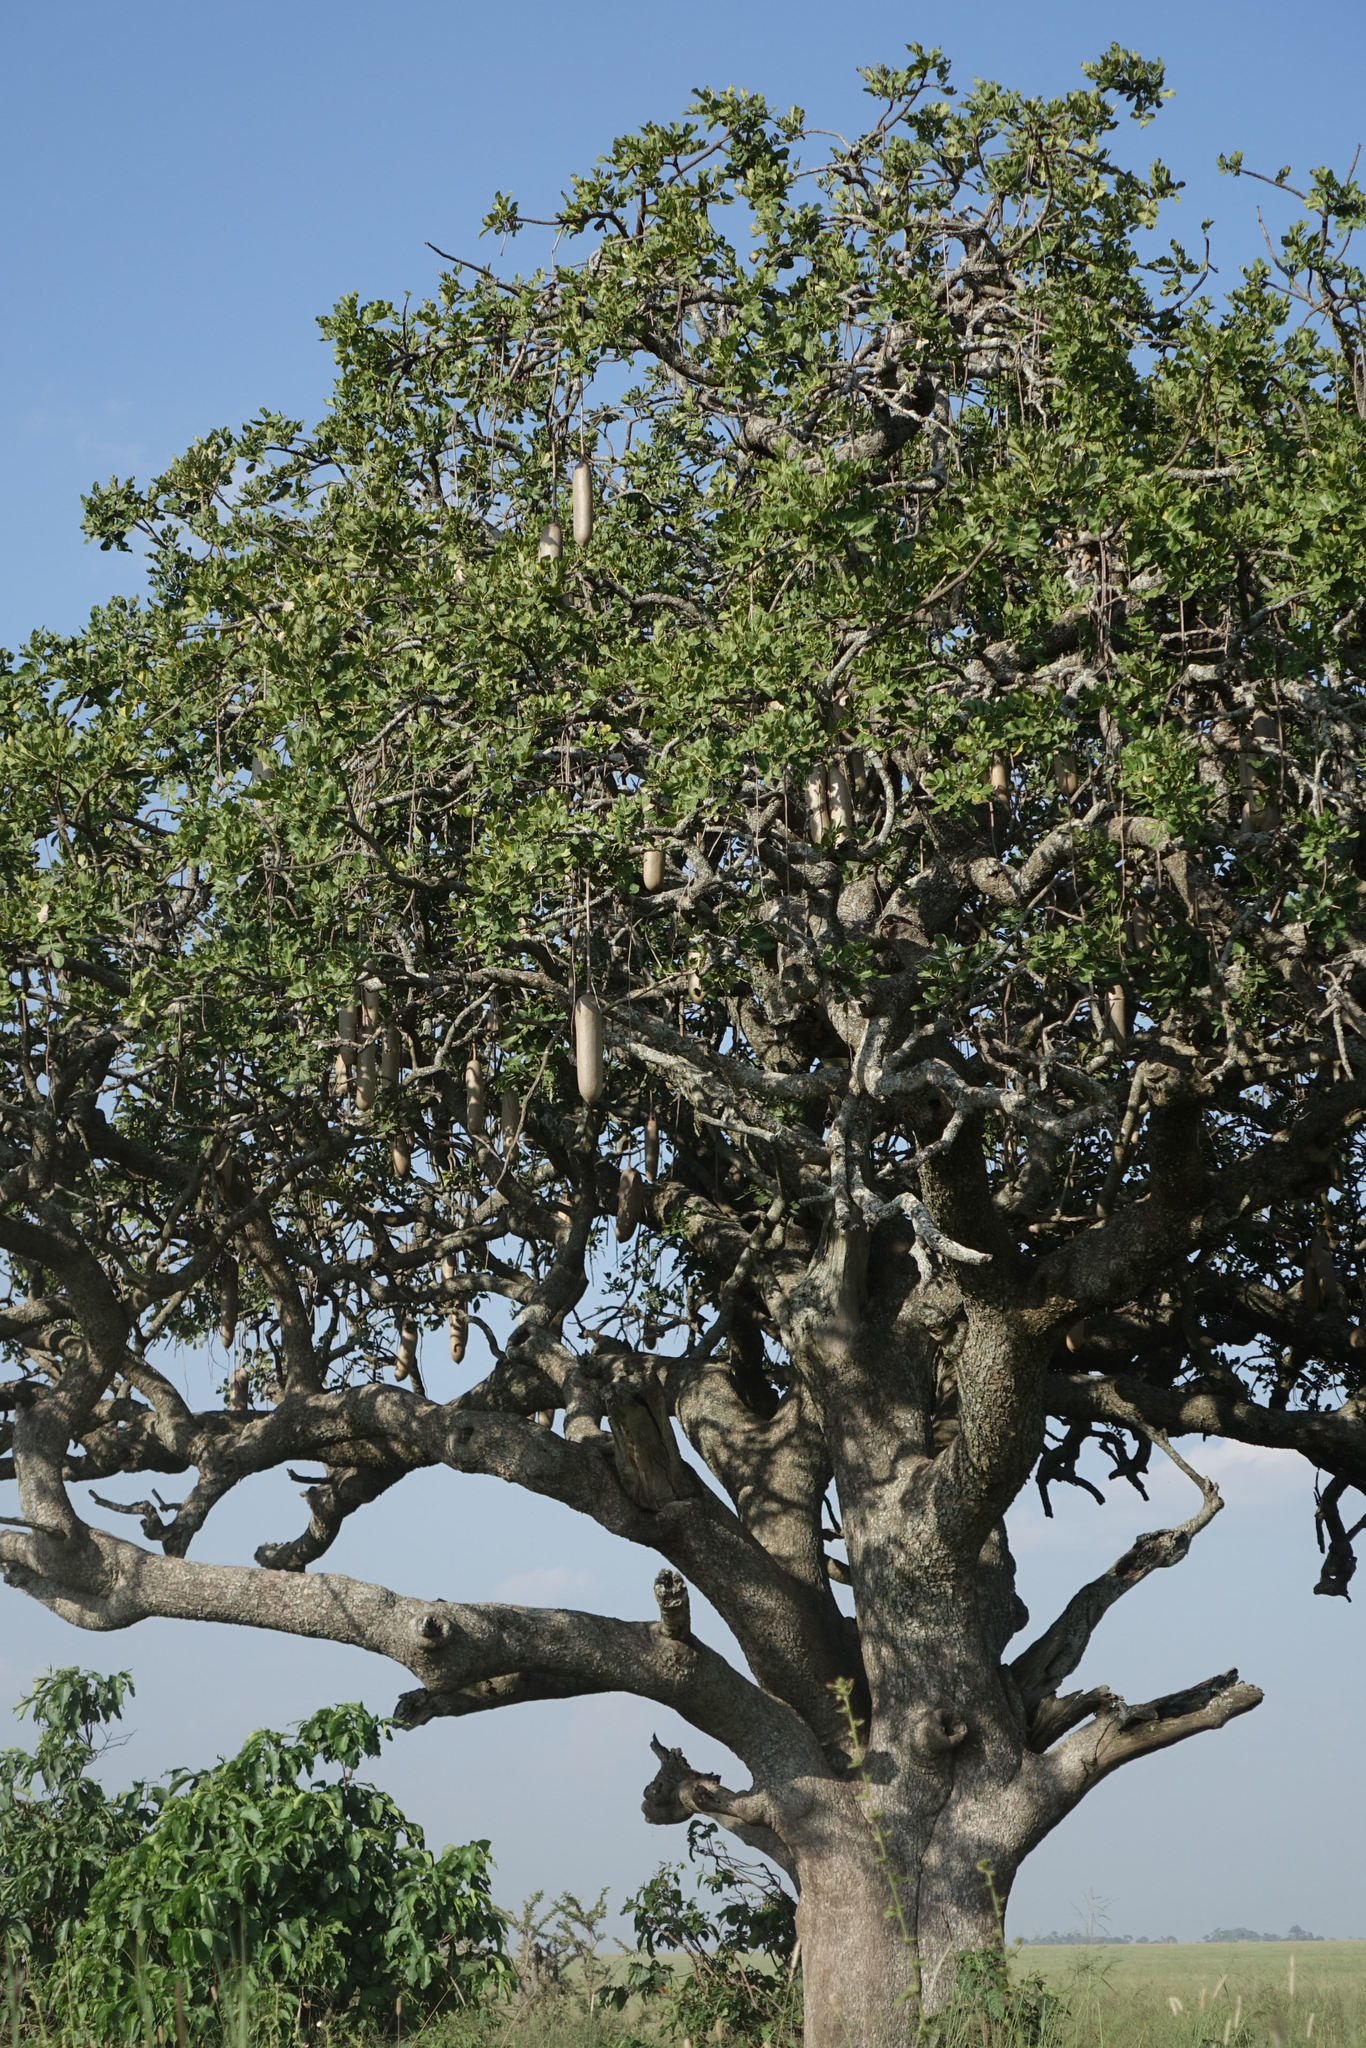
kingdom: Plantae
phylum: Tracheophyta
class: Magnoliopsida
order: Lamiales
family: Bignoniaceae
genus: Kigelia
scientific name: Kigelia africana
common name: Sausage tree
